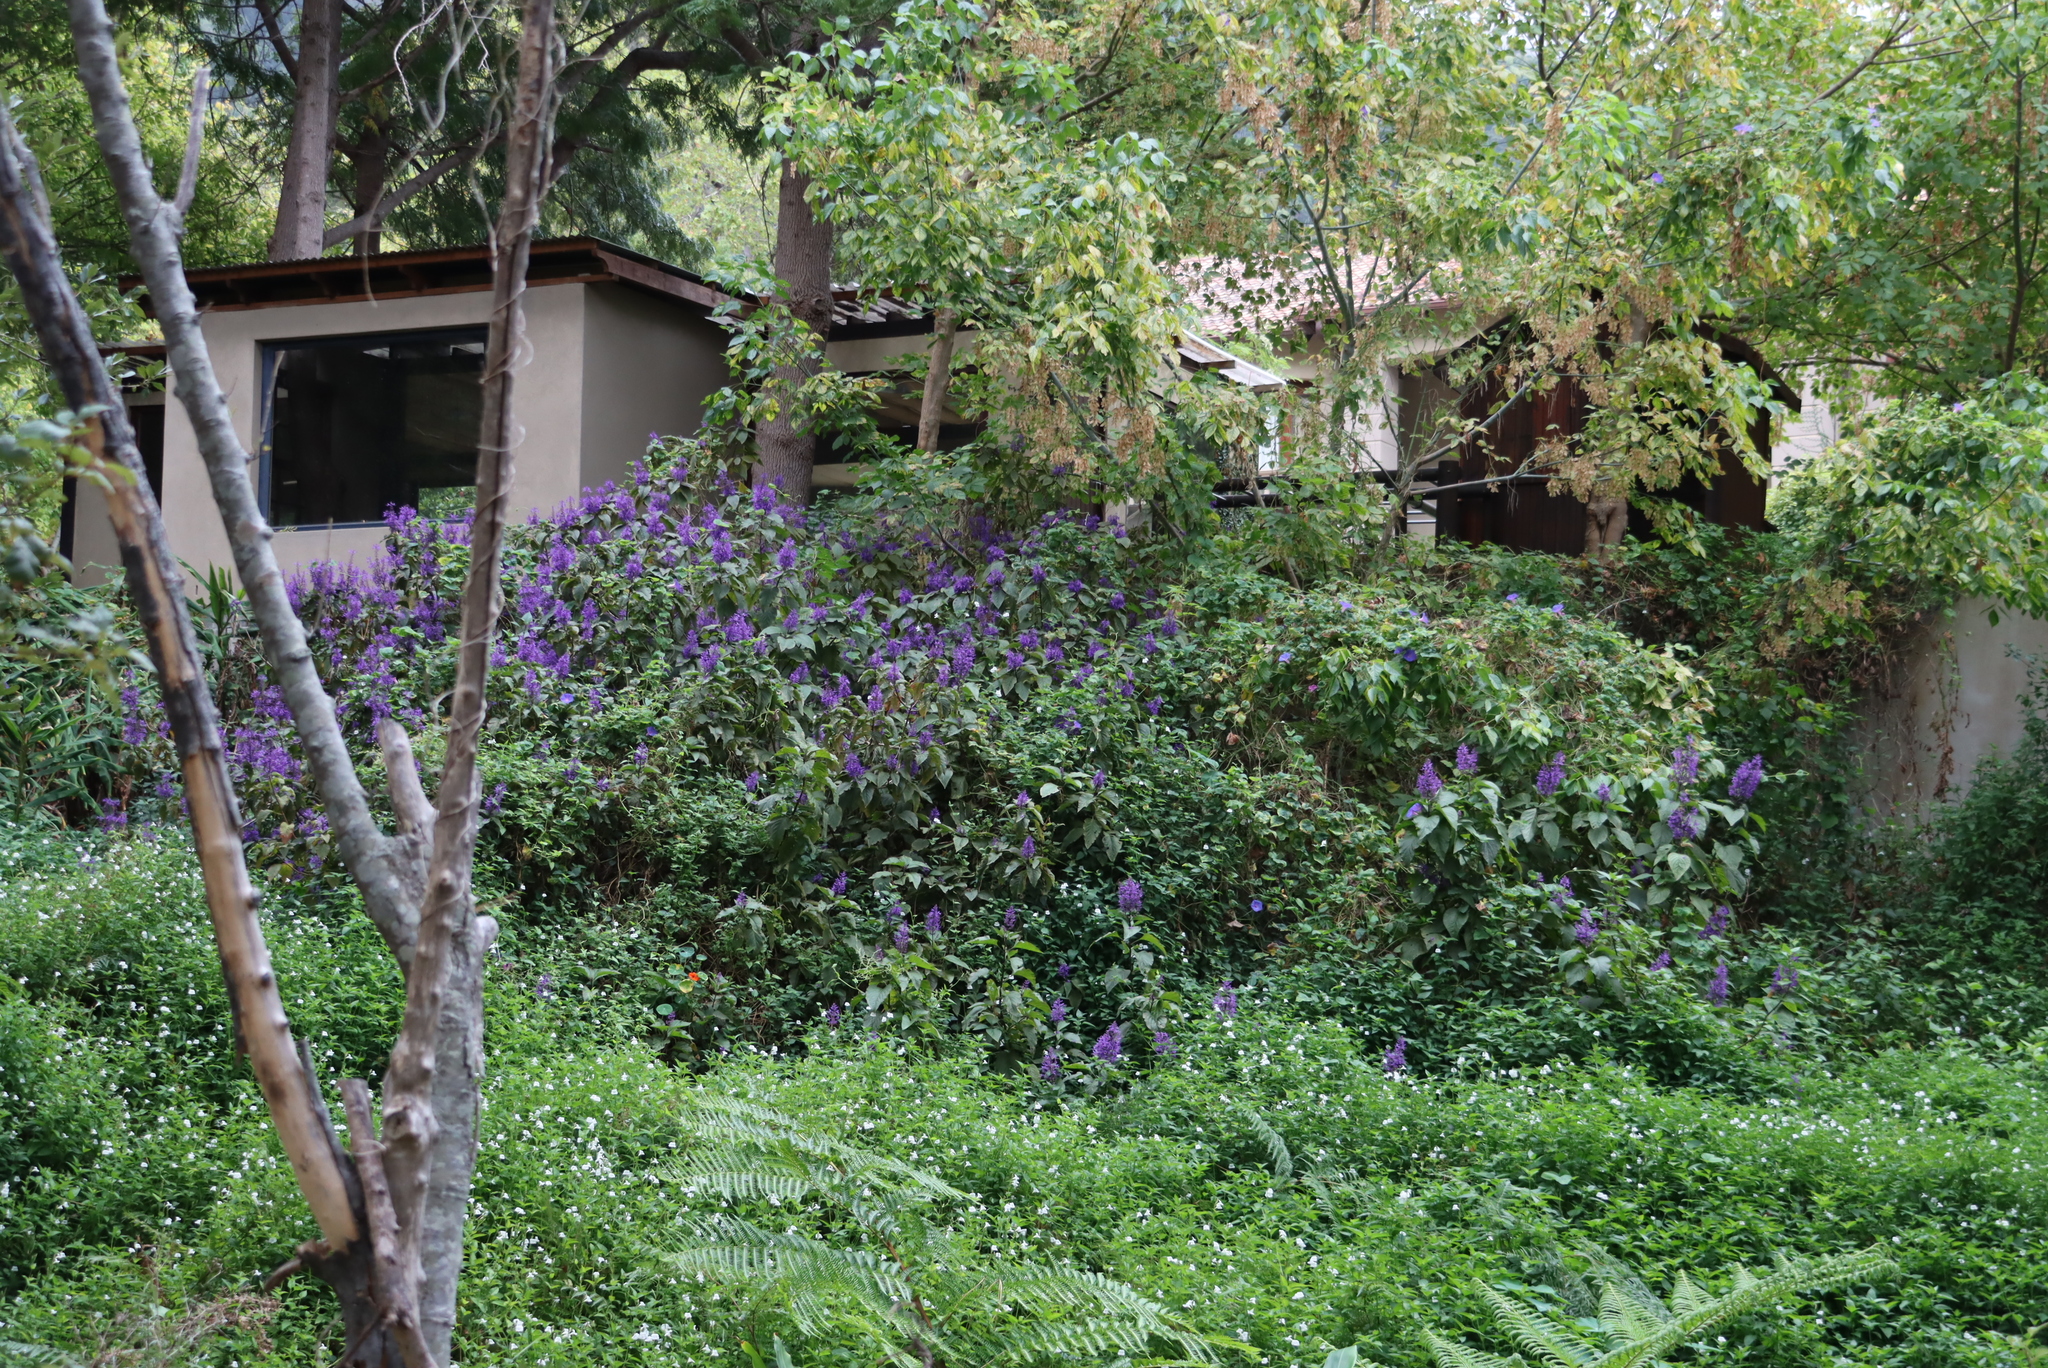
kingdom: Plantae
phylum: Tracheophyta
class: Magnoliopsida
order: Lamiales
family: Lamiaceae
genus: Plectranthus
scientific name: Plectranthus ecklonii
